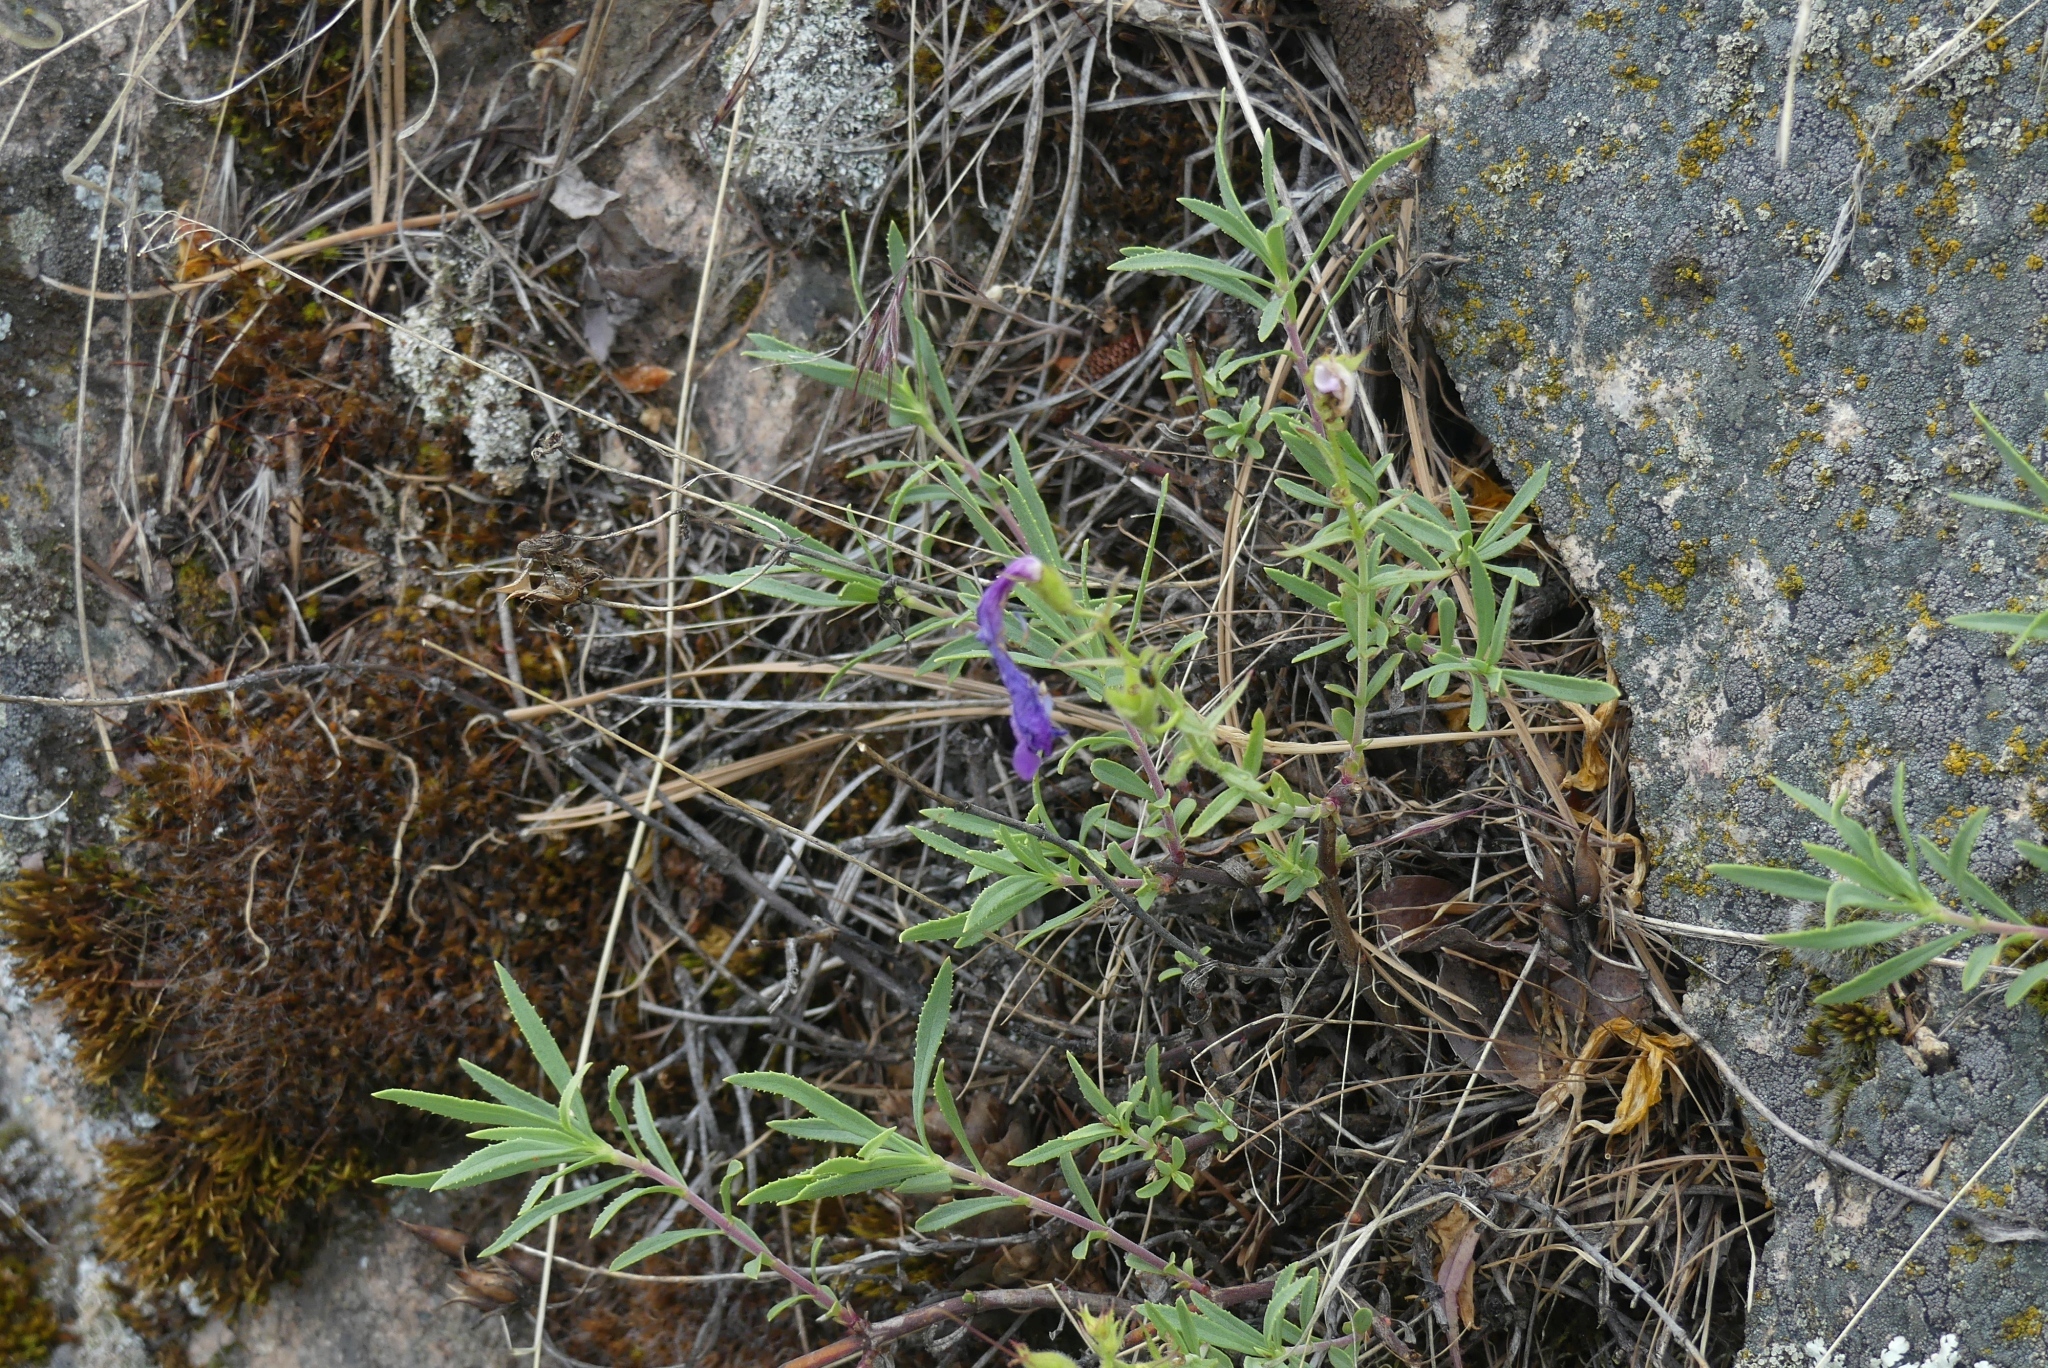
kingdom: Plantae
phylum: Tracheophyta
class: Magnoliopsida
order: Lamiales
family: Plantaginaceae
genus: Penstemon
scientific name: Penstemon fruticosus
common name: Bush penstemon
